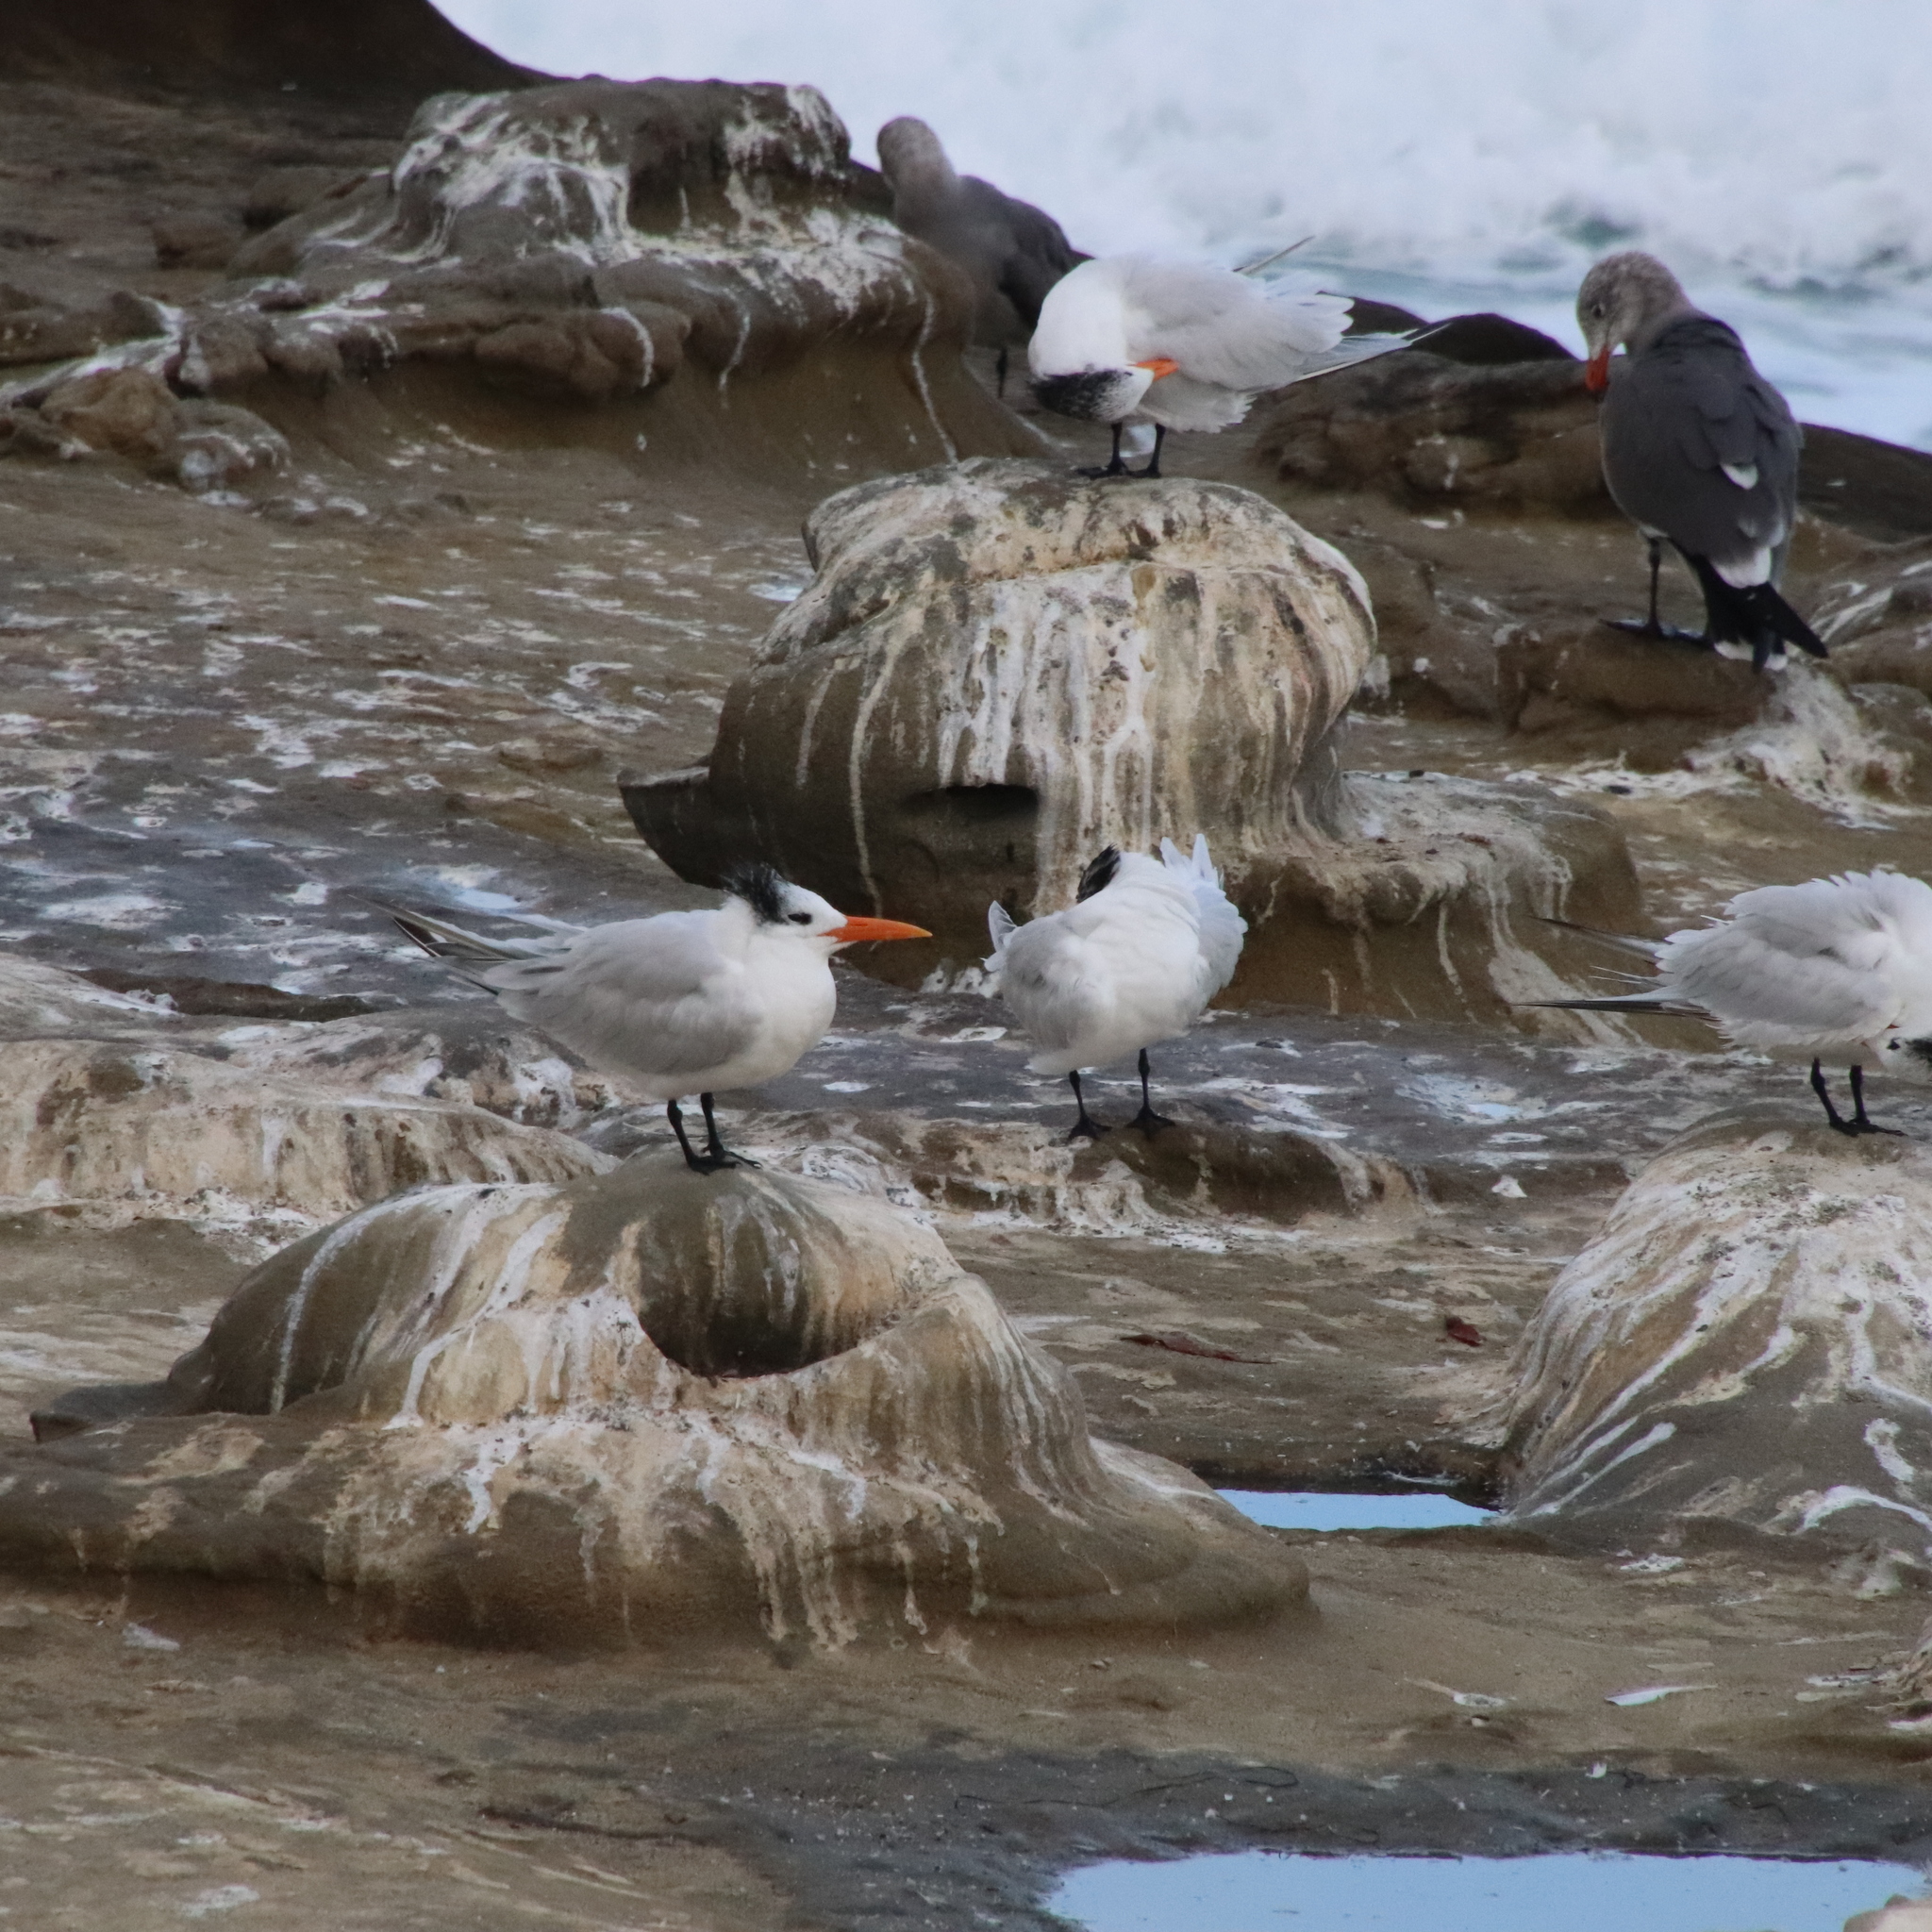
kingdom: Animalia
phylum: Chordata
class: Aves
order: Charadriiformes
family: Laridae
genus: Thalasseus
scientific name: Thalasseus maximus
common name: Royal tern
